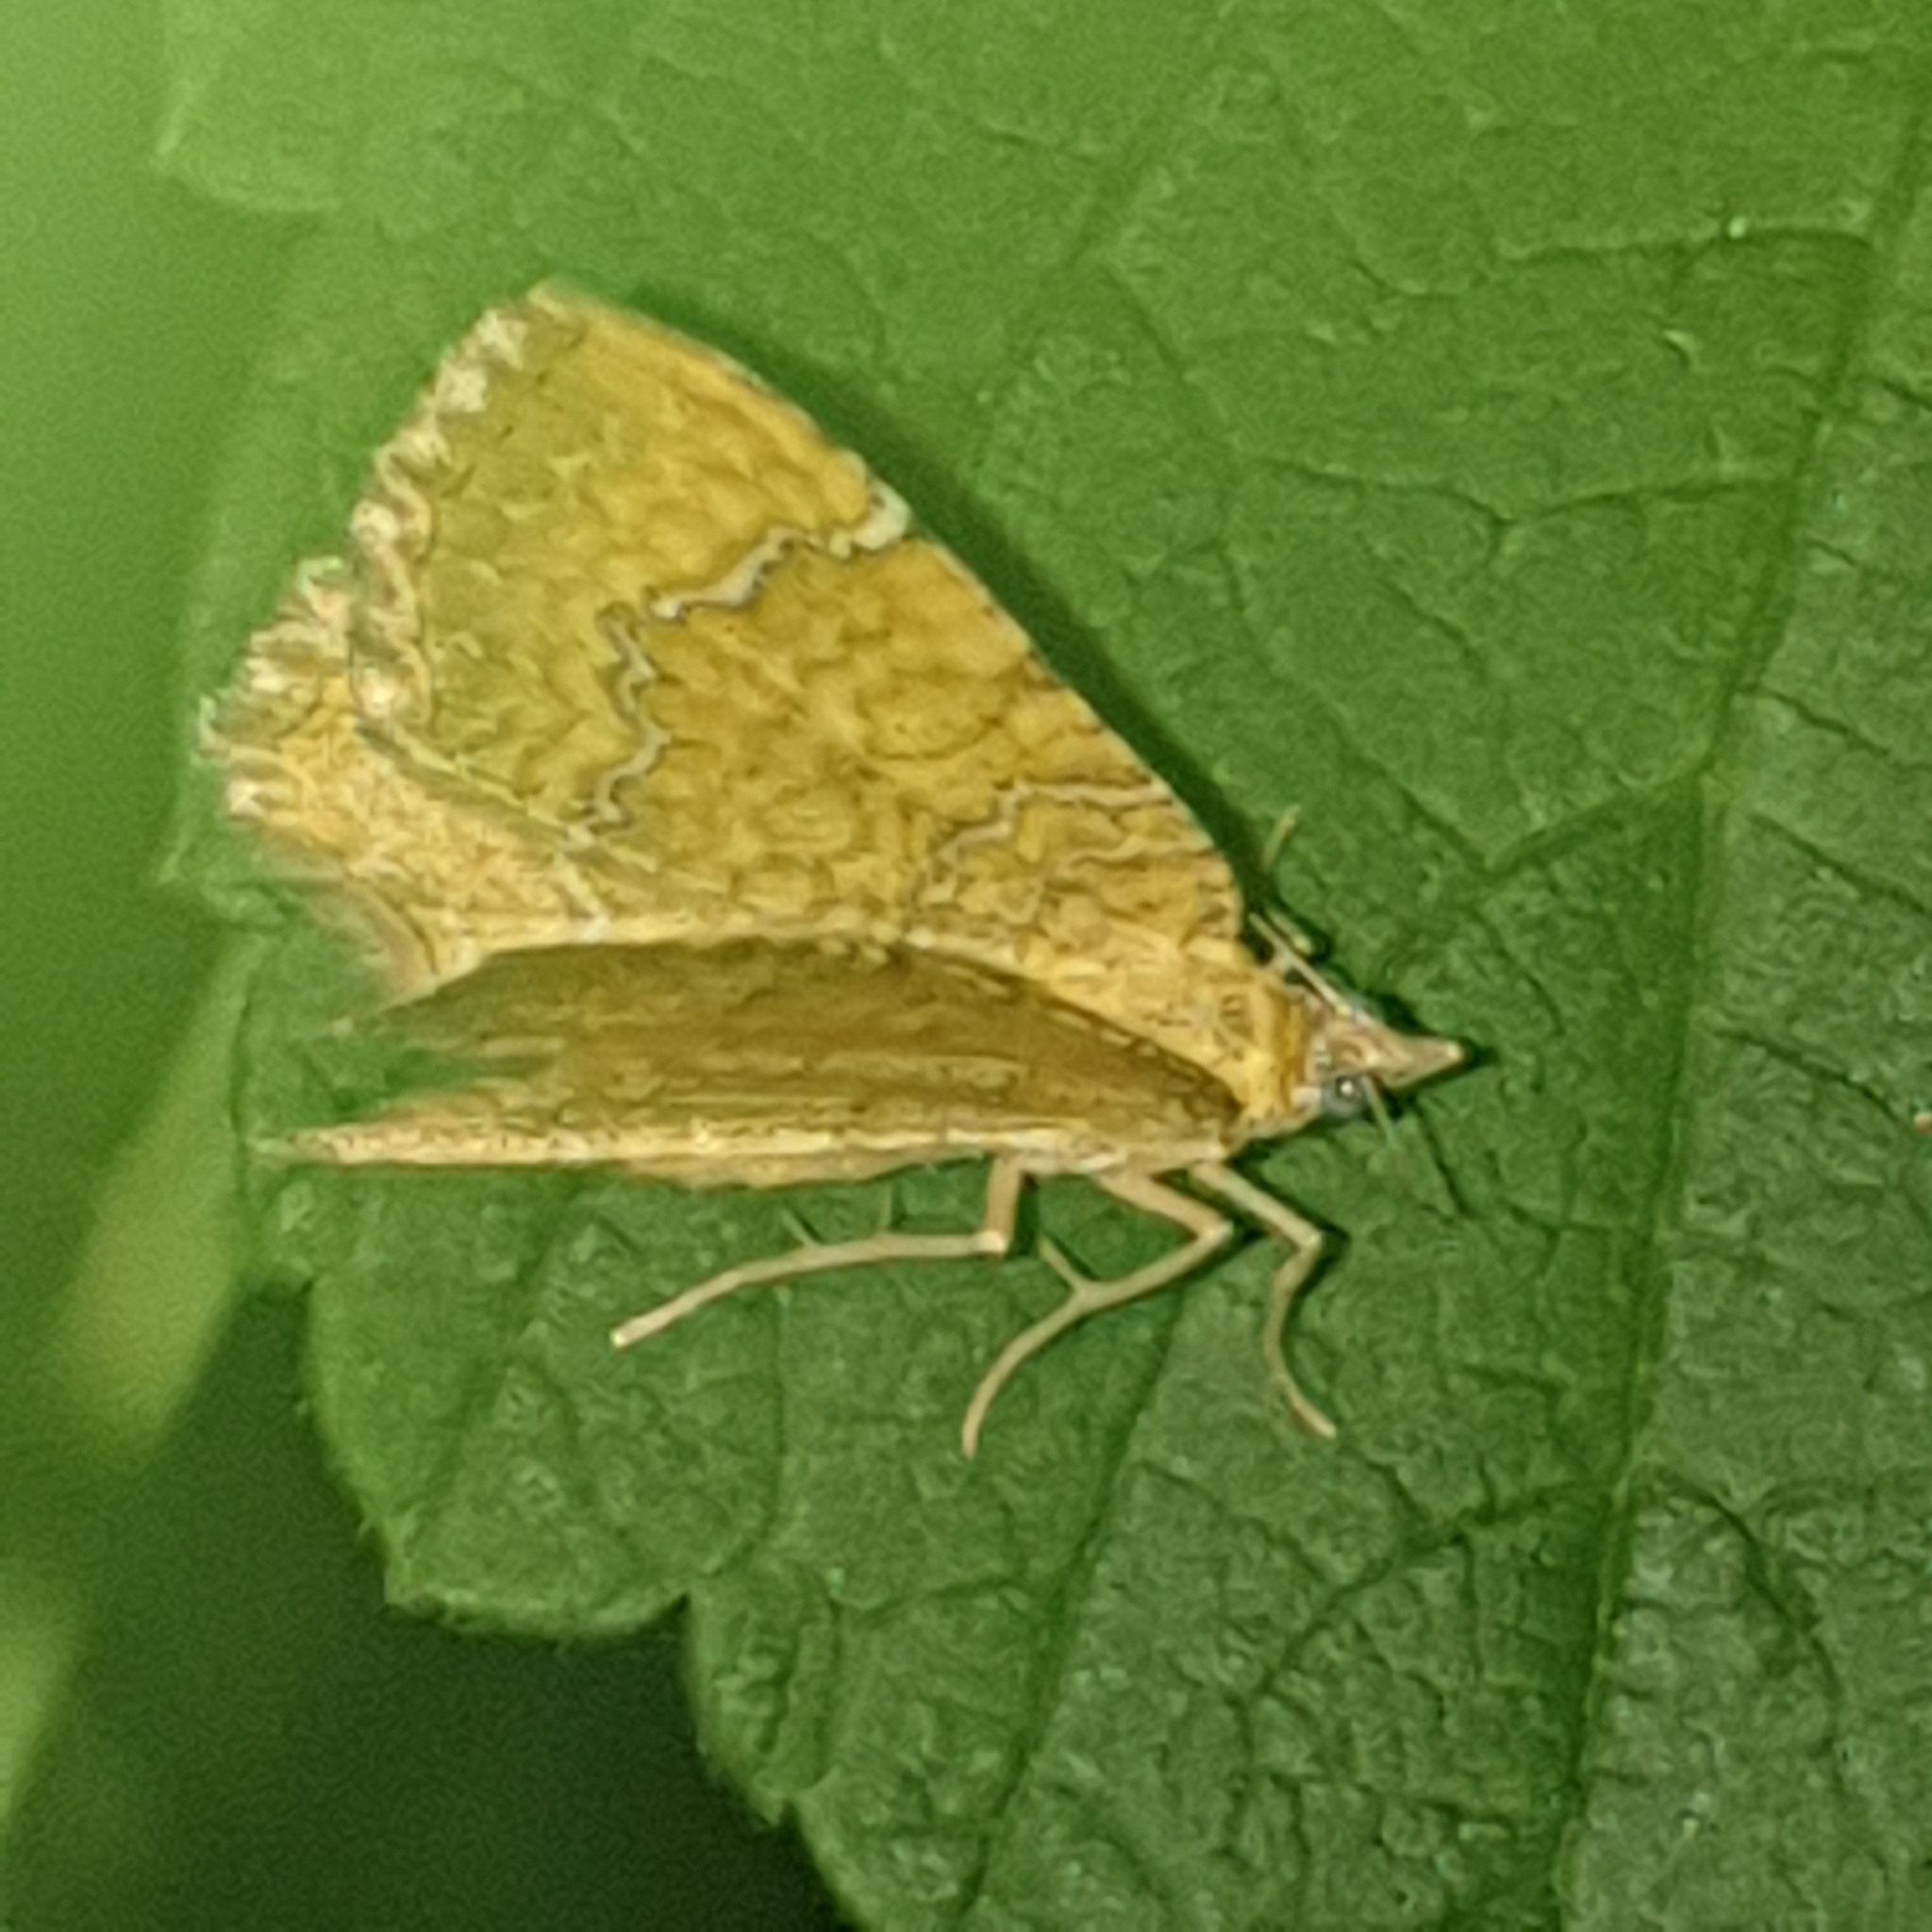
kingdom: Animalia
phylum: Arthropoda
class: Insecta
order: Lepidoptera
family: Geometridae
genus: Camptogramma
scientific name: Camptogramma bilineata
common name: Yellow shell
